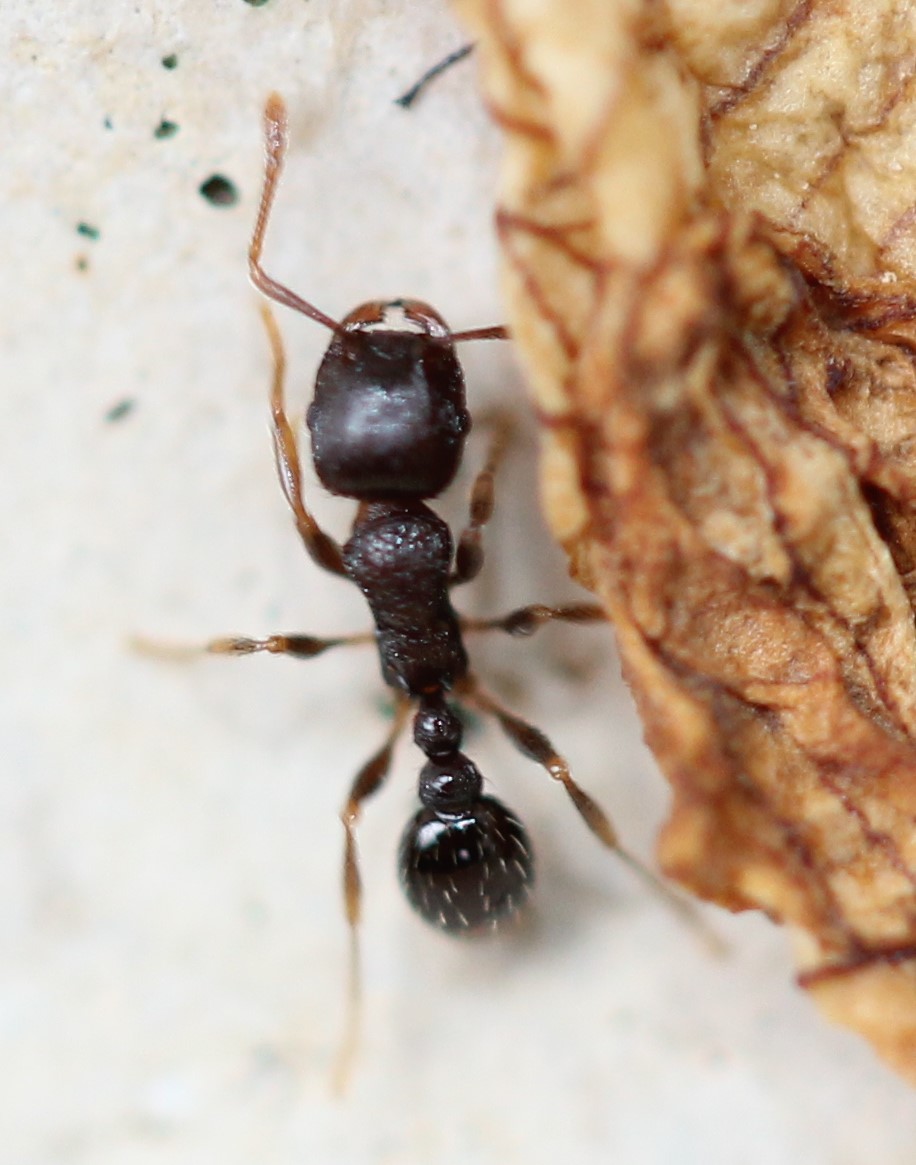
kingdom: Animalia
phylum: Arthropoda
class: Insecta
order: Hymenoptera
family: Formicidae
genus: Tetramorium
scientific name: Tetramorium immigrans
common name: Pavement ant
